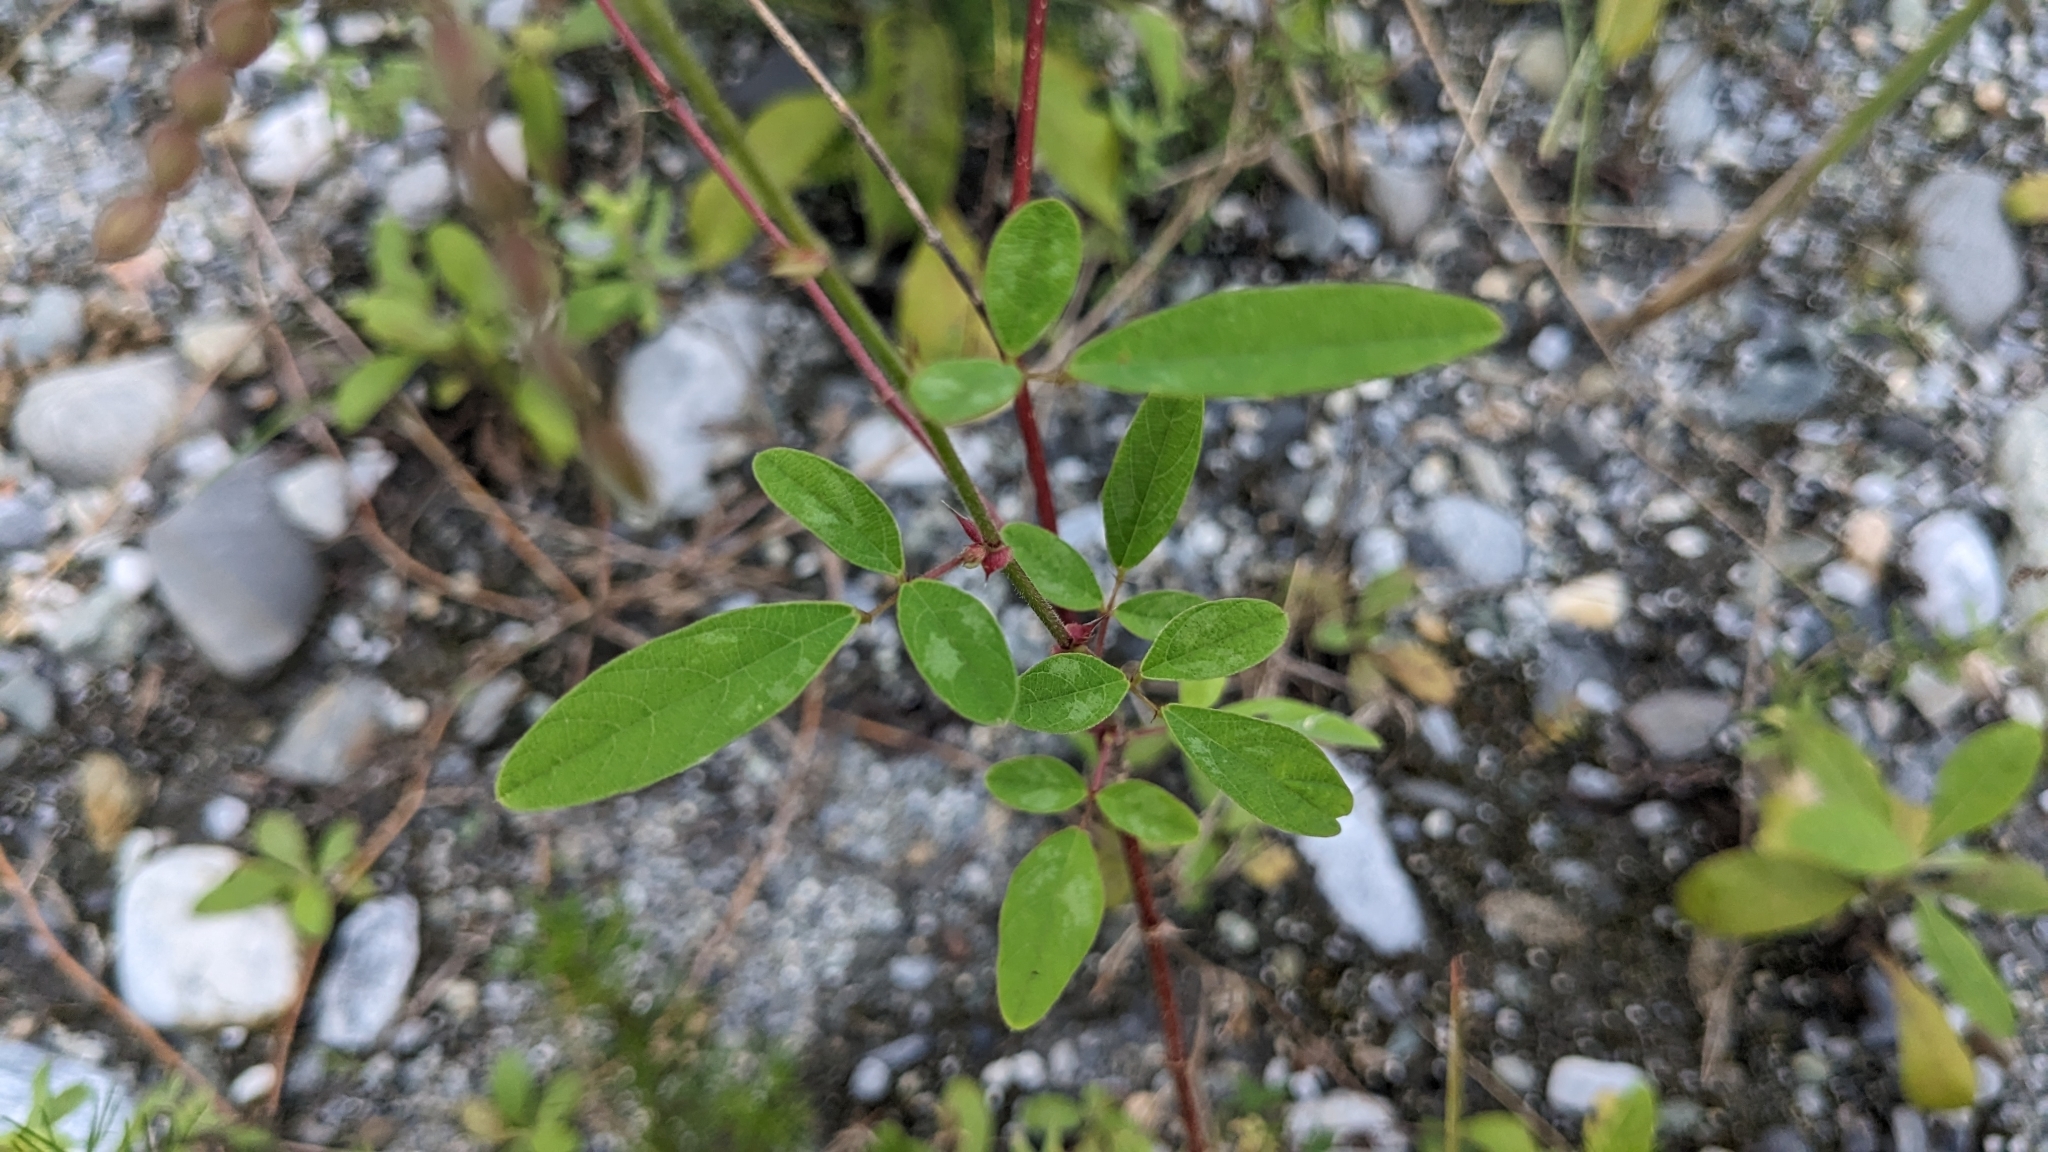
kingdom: Plantae
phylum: Tracheophyta
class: Magnoliopsida
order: Fabales
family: Fabaceae
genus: Desmodium
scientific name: Desmodium tortuosum
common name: Dixie ticktrefoil
